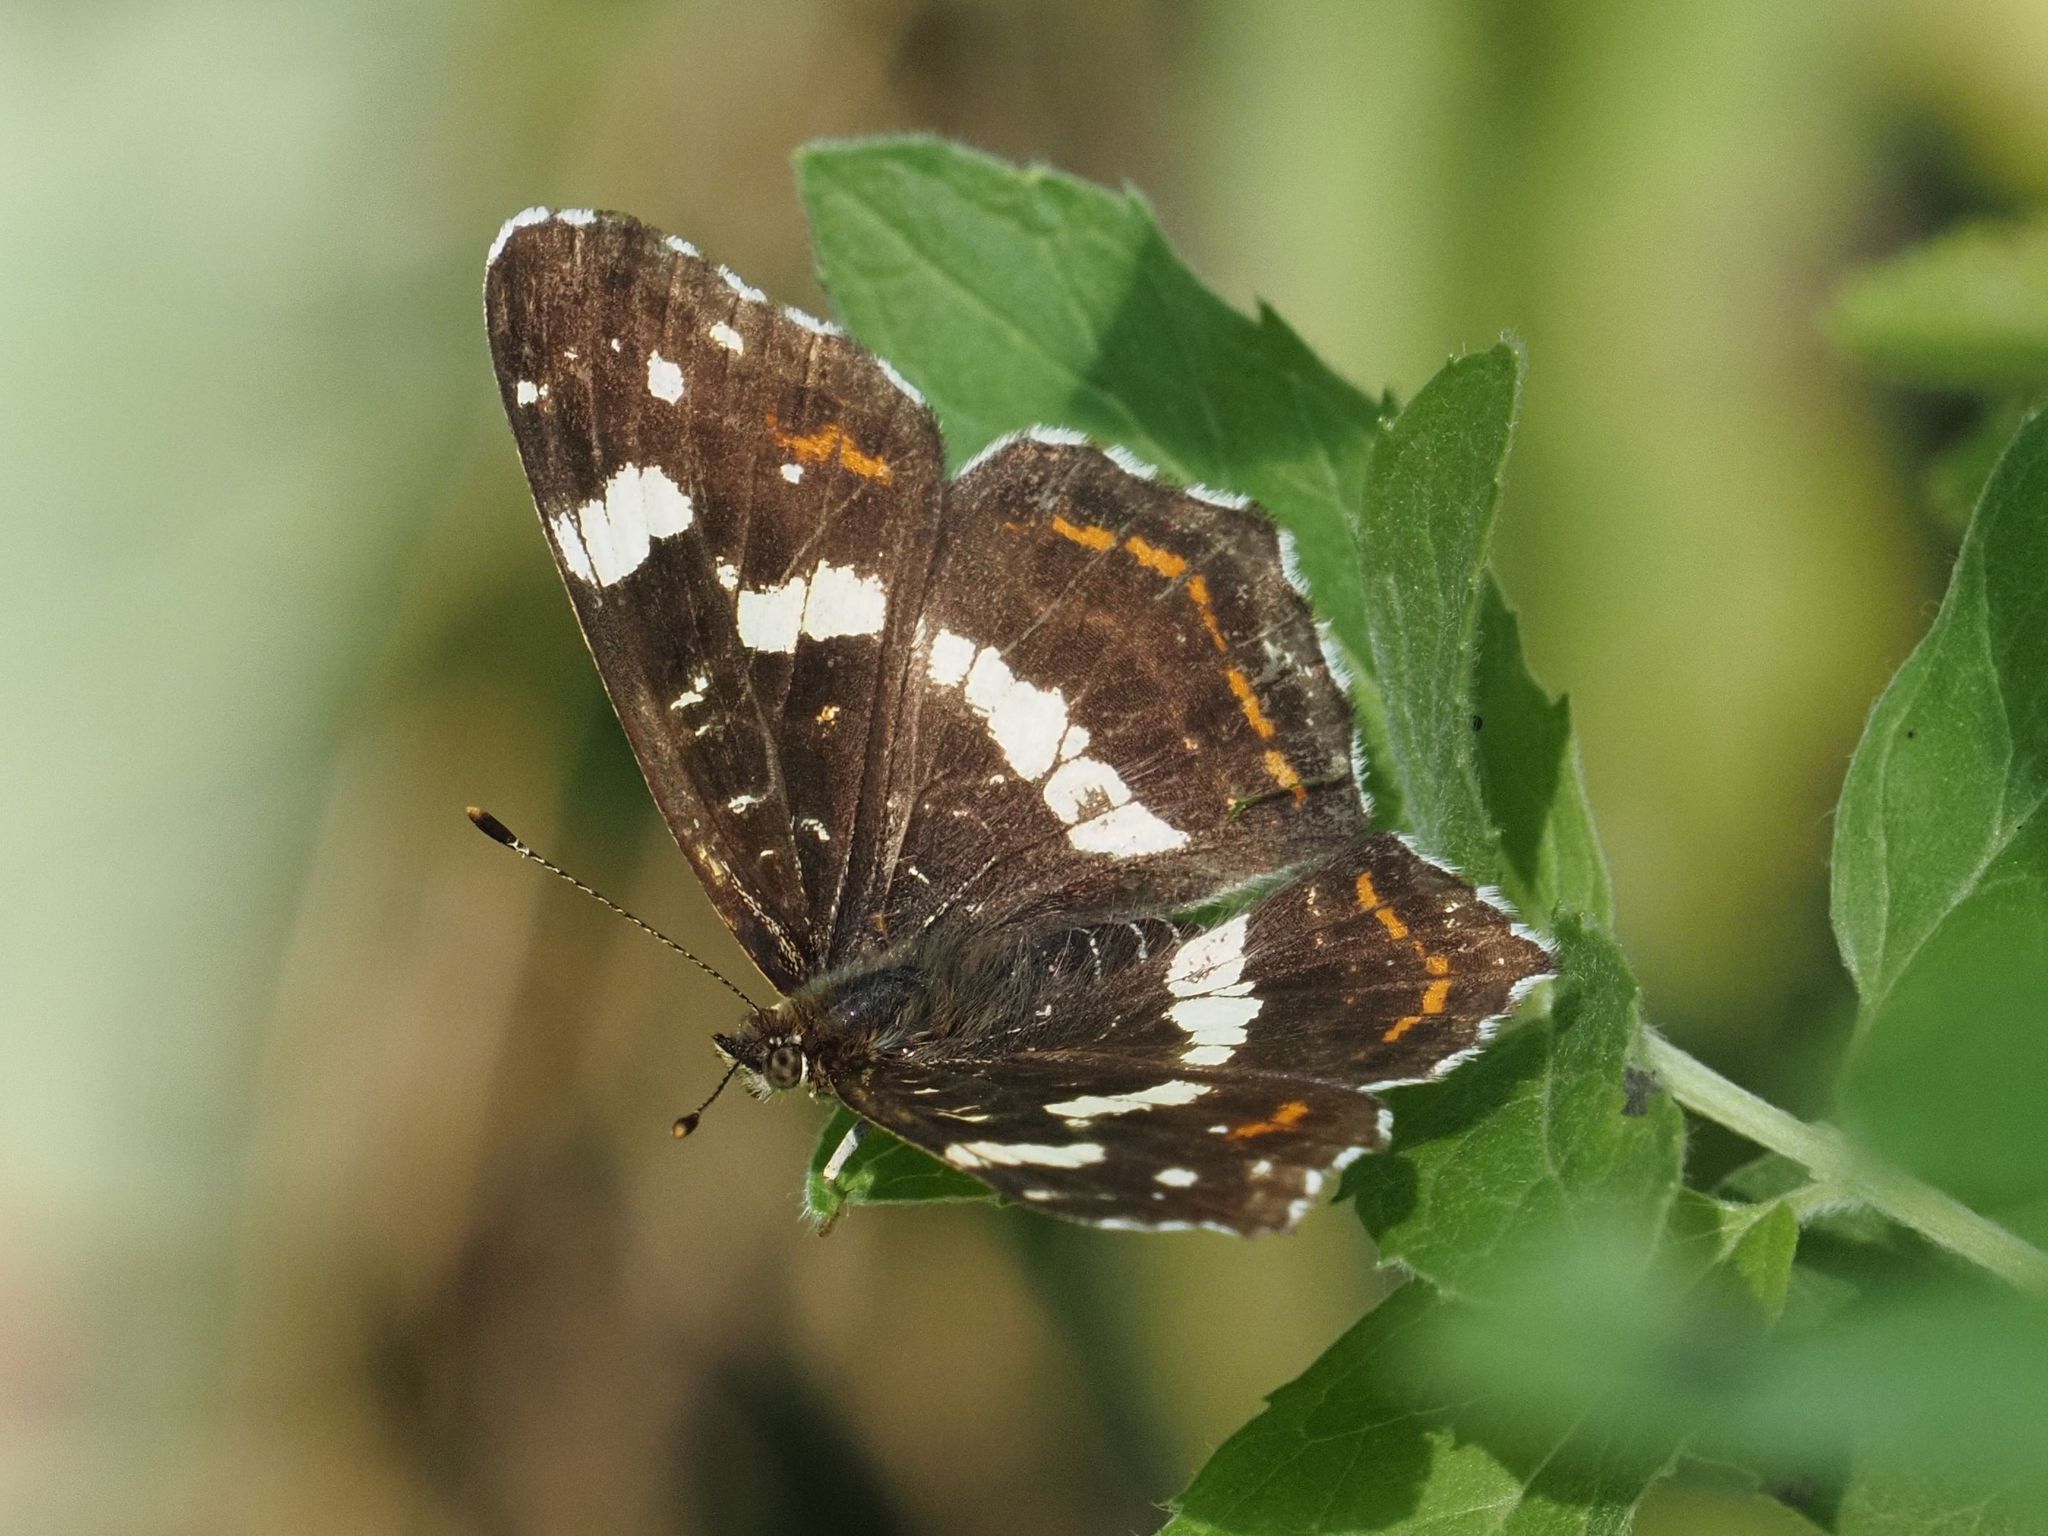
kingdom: Animalia
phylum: Arthropoda
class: Insecta
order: Lepidoptera
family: Nymphalidae
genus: Araschnia
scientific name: Araschnia levana
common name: Map butterfly
